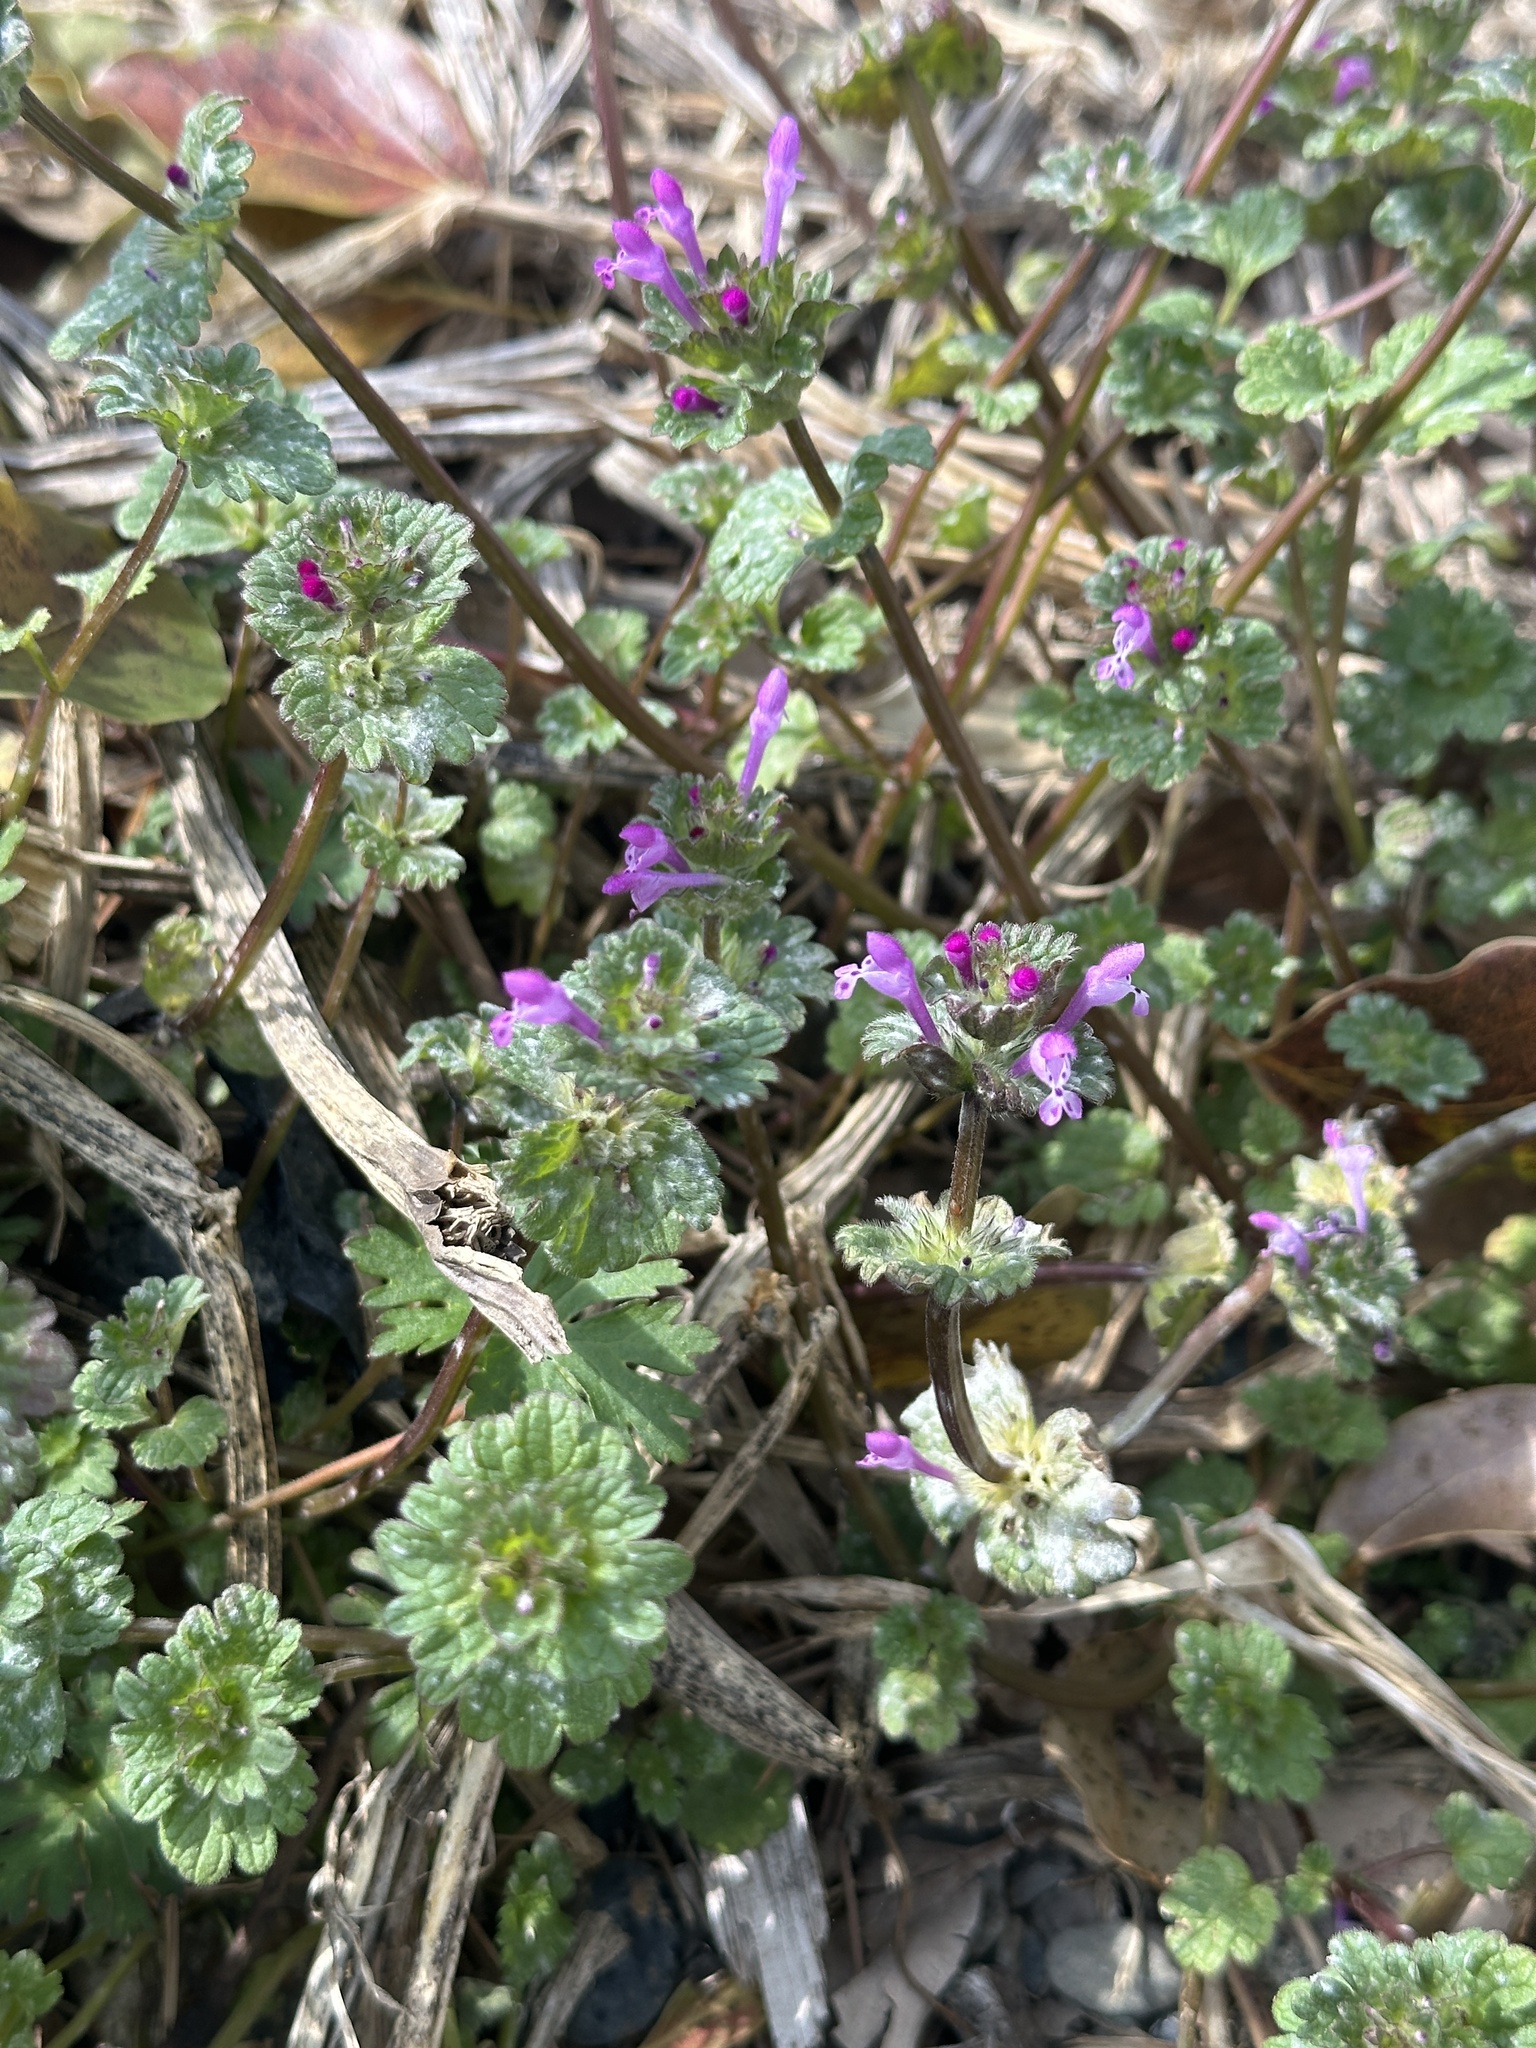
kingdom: Plantae
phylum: Tracheophyta
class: Magnoliopsida
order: Lamiales
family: Lamiaceae
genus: Lamium
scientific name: Lamium amplexicaule
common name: Henbit dead-nettle
